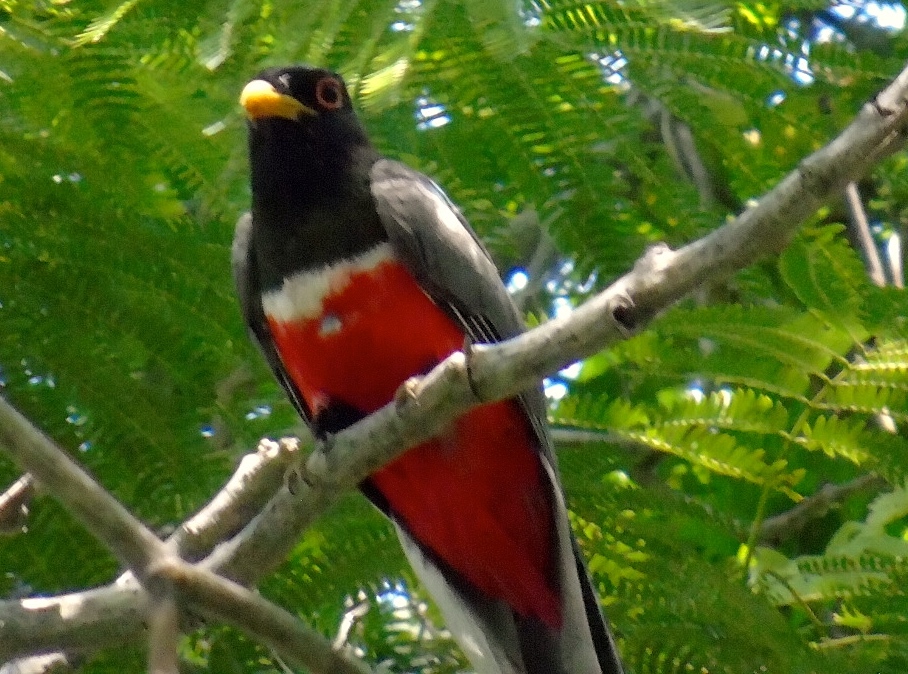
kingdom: Animalia
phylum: Chordata
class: Aves
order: Trogoniformes
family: Trogonidae
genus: Trogon
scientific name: Trogon elegans
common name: Elegant trogon
